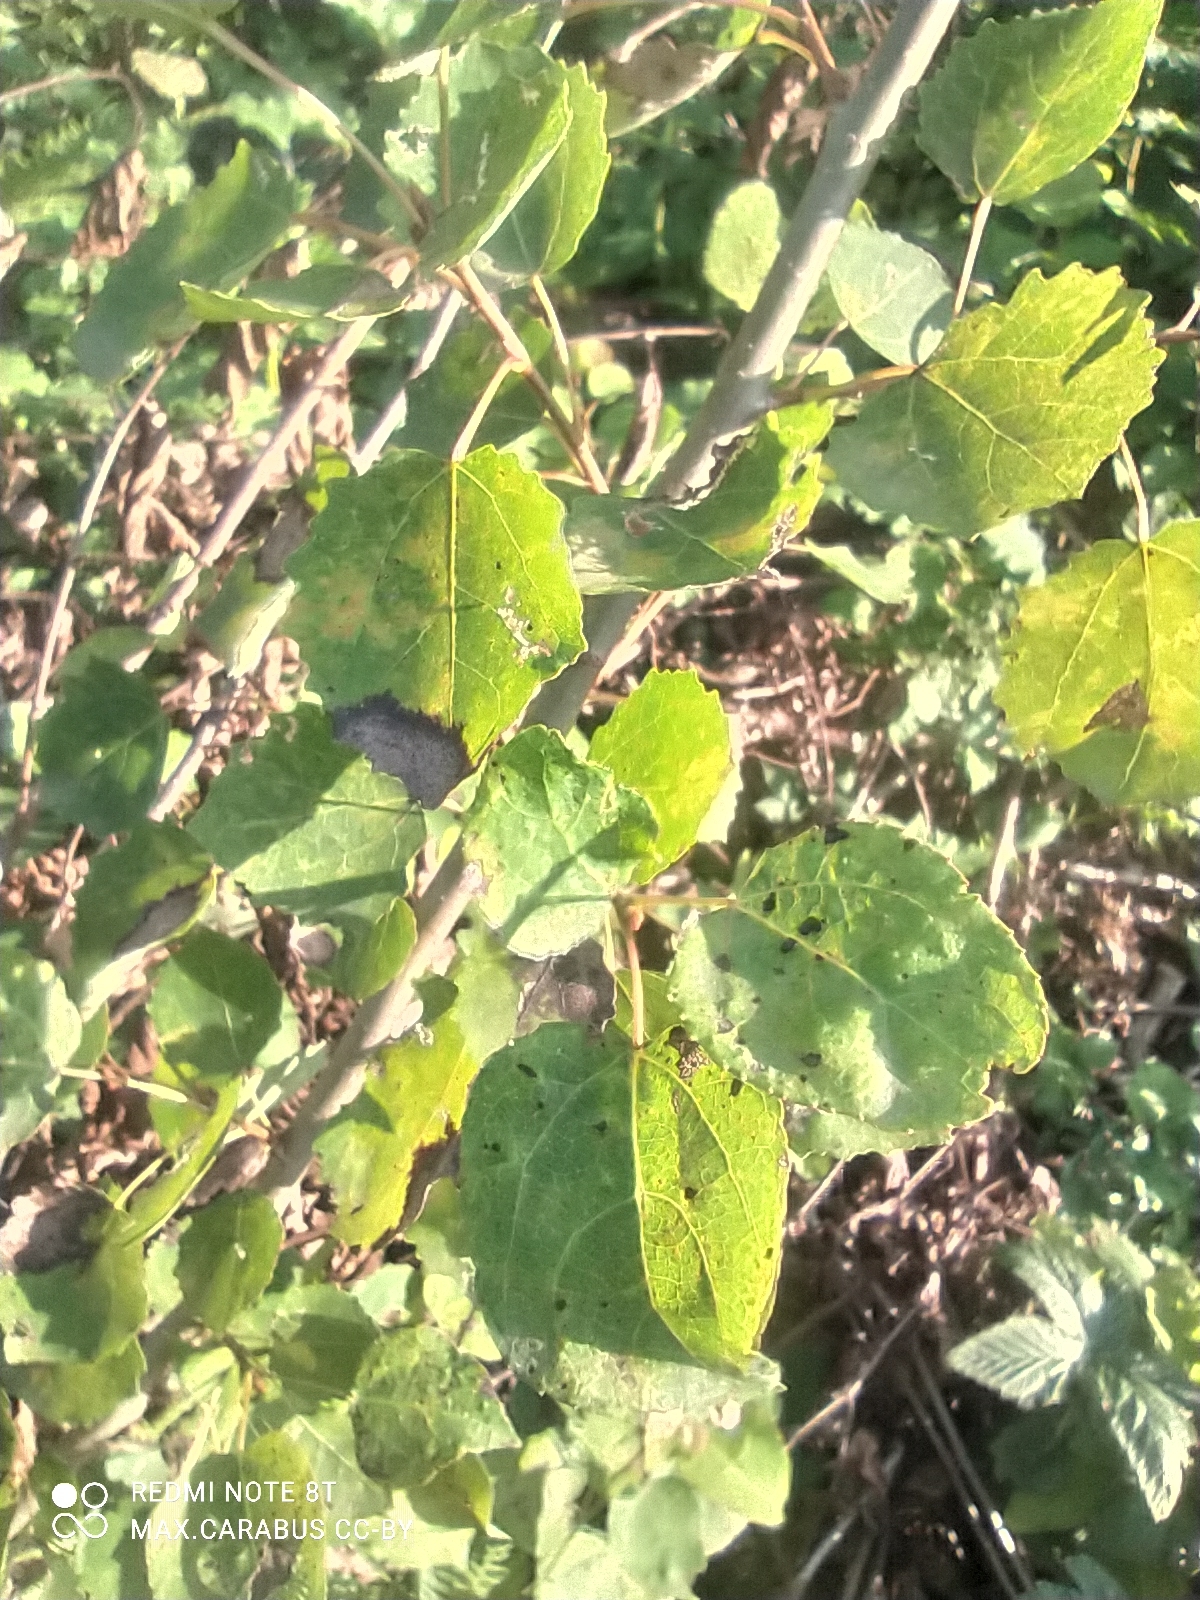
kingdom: Plantae
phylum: Tracheophyta
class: Magnoliopsida
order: Malpighiales
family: Salicaceae
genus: Populus
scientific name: Populus tremula
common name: European aspen
